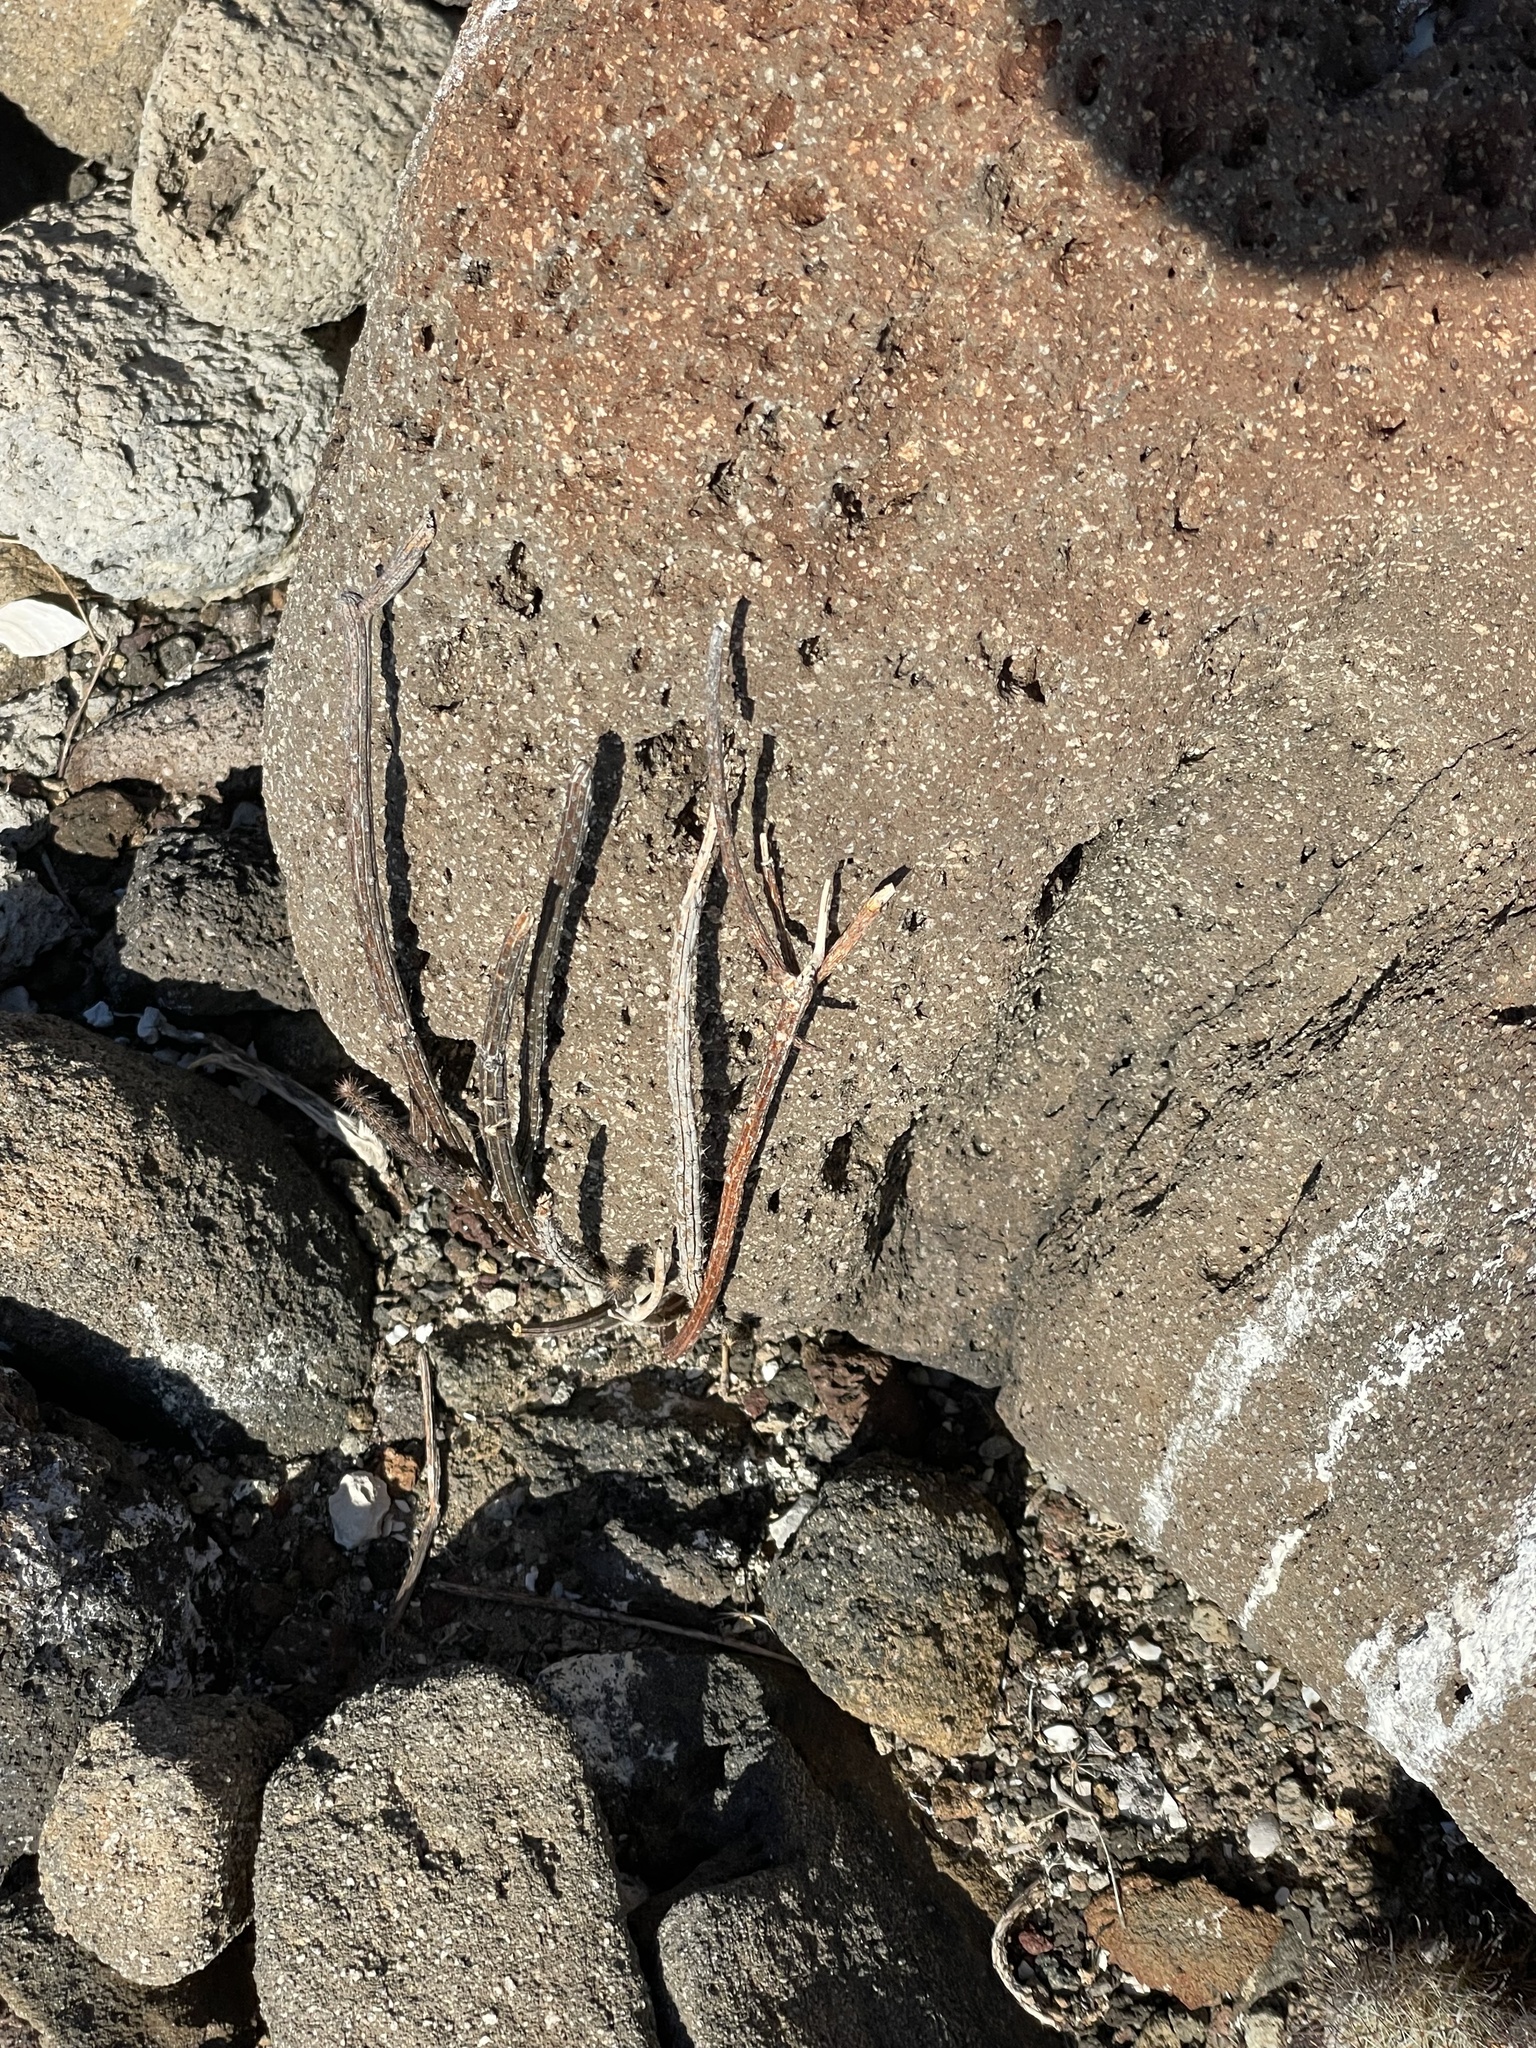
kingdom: Plantae
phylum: Tracheophyta
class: Magnoliopsida
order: Caryophyllales
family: Cactaceae
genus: Peniocereus
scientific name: Peniocereus striatus
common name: Gearstem cactus
